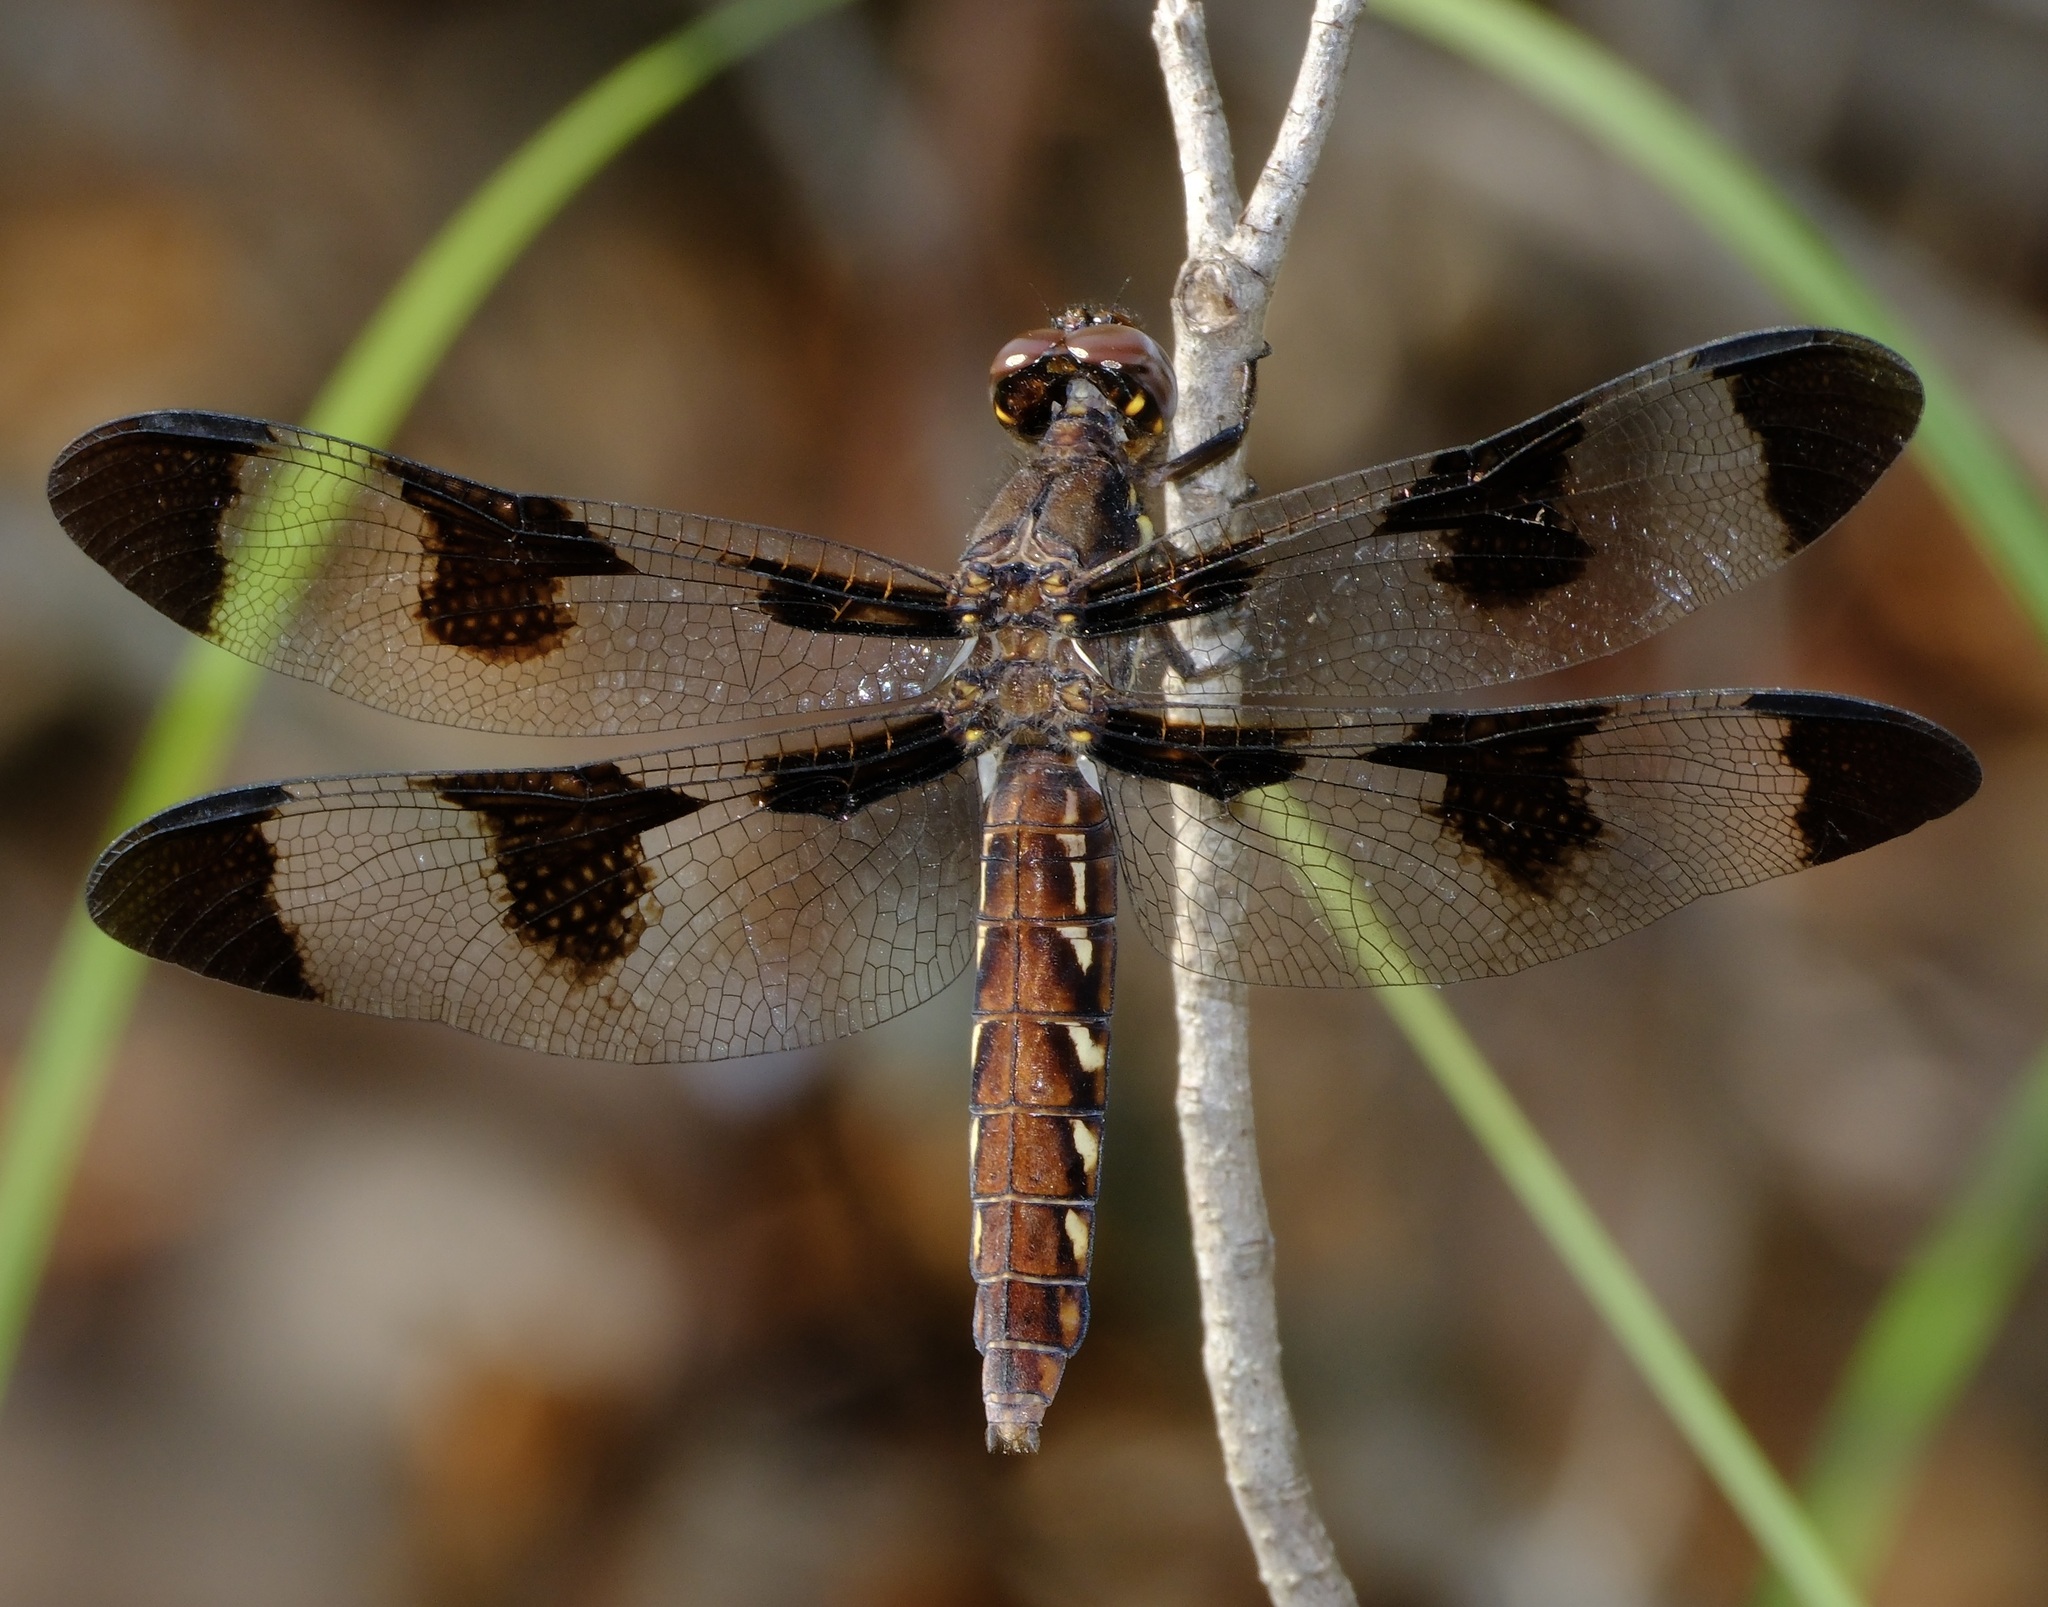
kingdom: Animalia
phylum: Arthropoda
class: Insecta
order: Odonata
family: Libellulidae
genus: Plathemis
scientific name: Plathemis lydia
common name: Common whitetail
